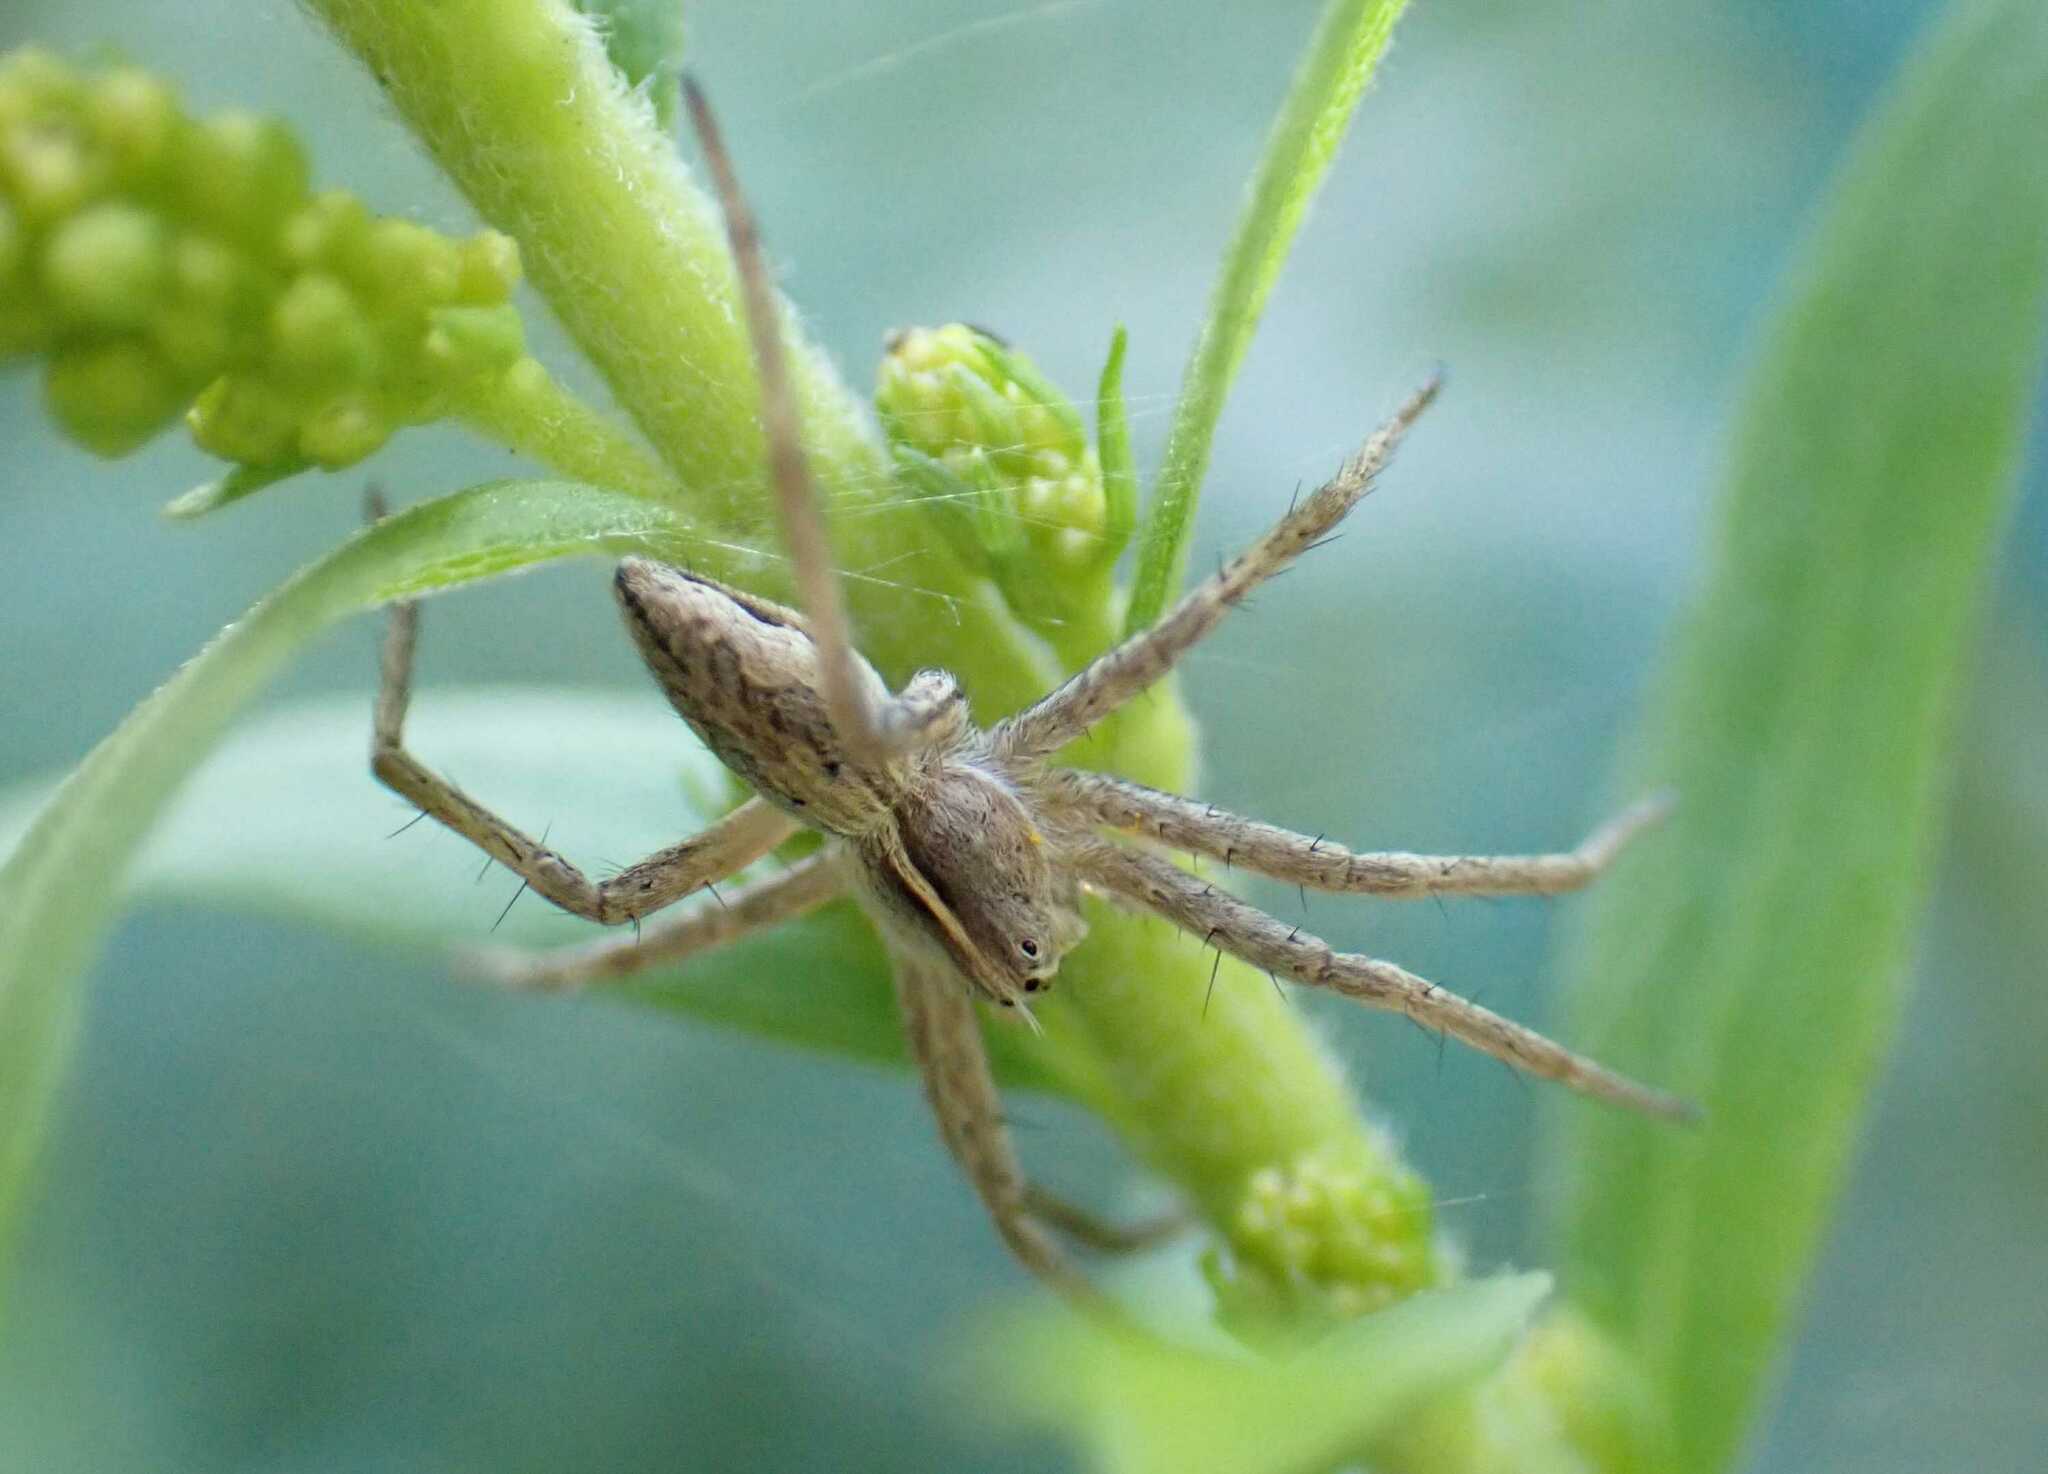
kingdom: Animalia
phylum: Arthropoda
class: Arachnida
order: Araneae
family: Pisauridae
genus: Pisaura
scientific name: Pisaura mirabilis
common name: Tent spider
